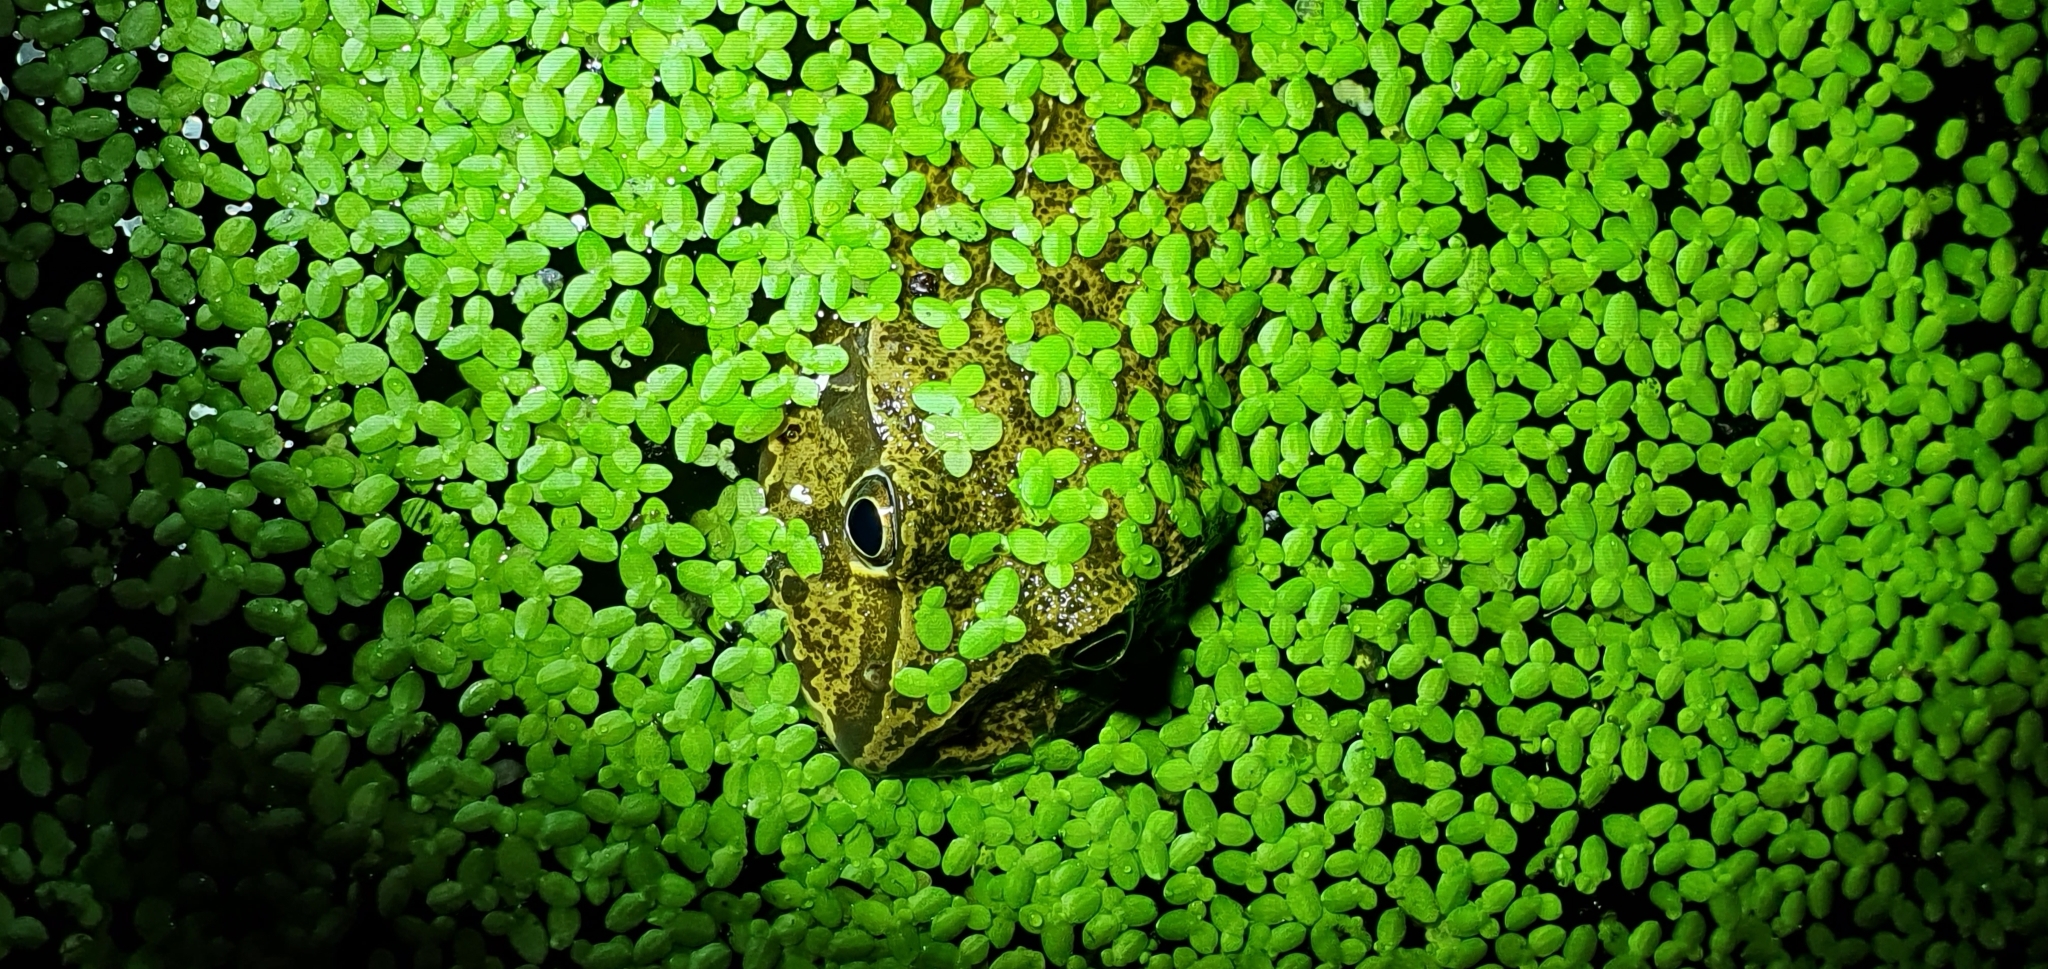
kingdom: Animalia
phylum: Chordata
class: Amphibia
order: Anura
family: Pelodryadidae
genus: Ranoidea
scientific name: Ranoidea novaehollandiae
